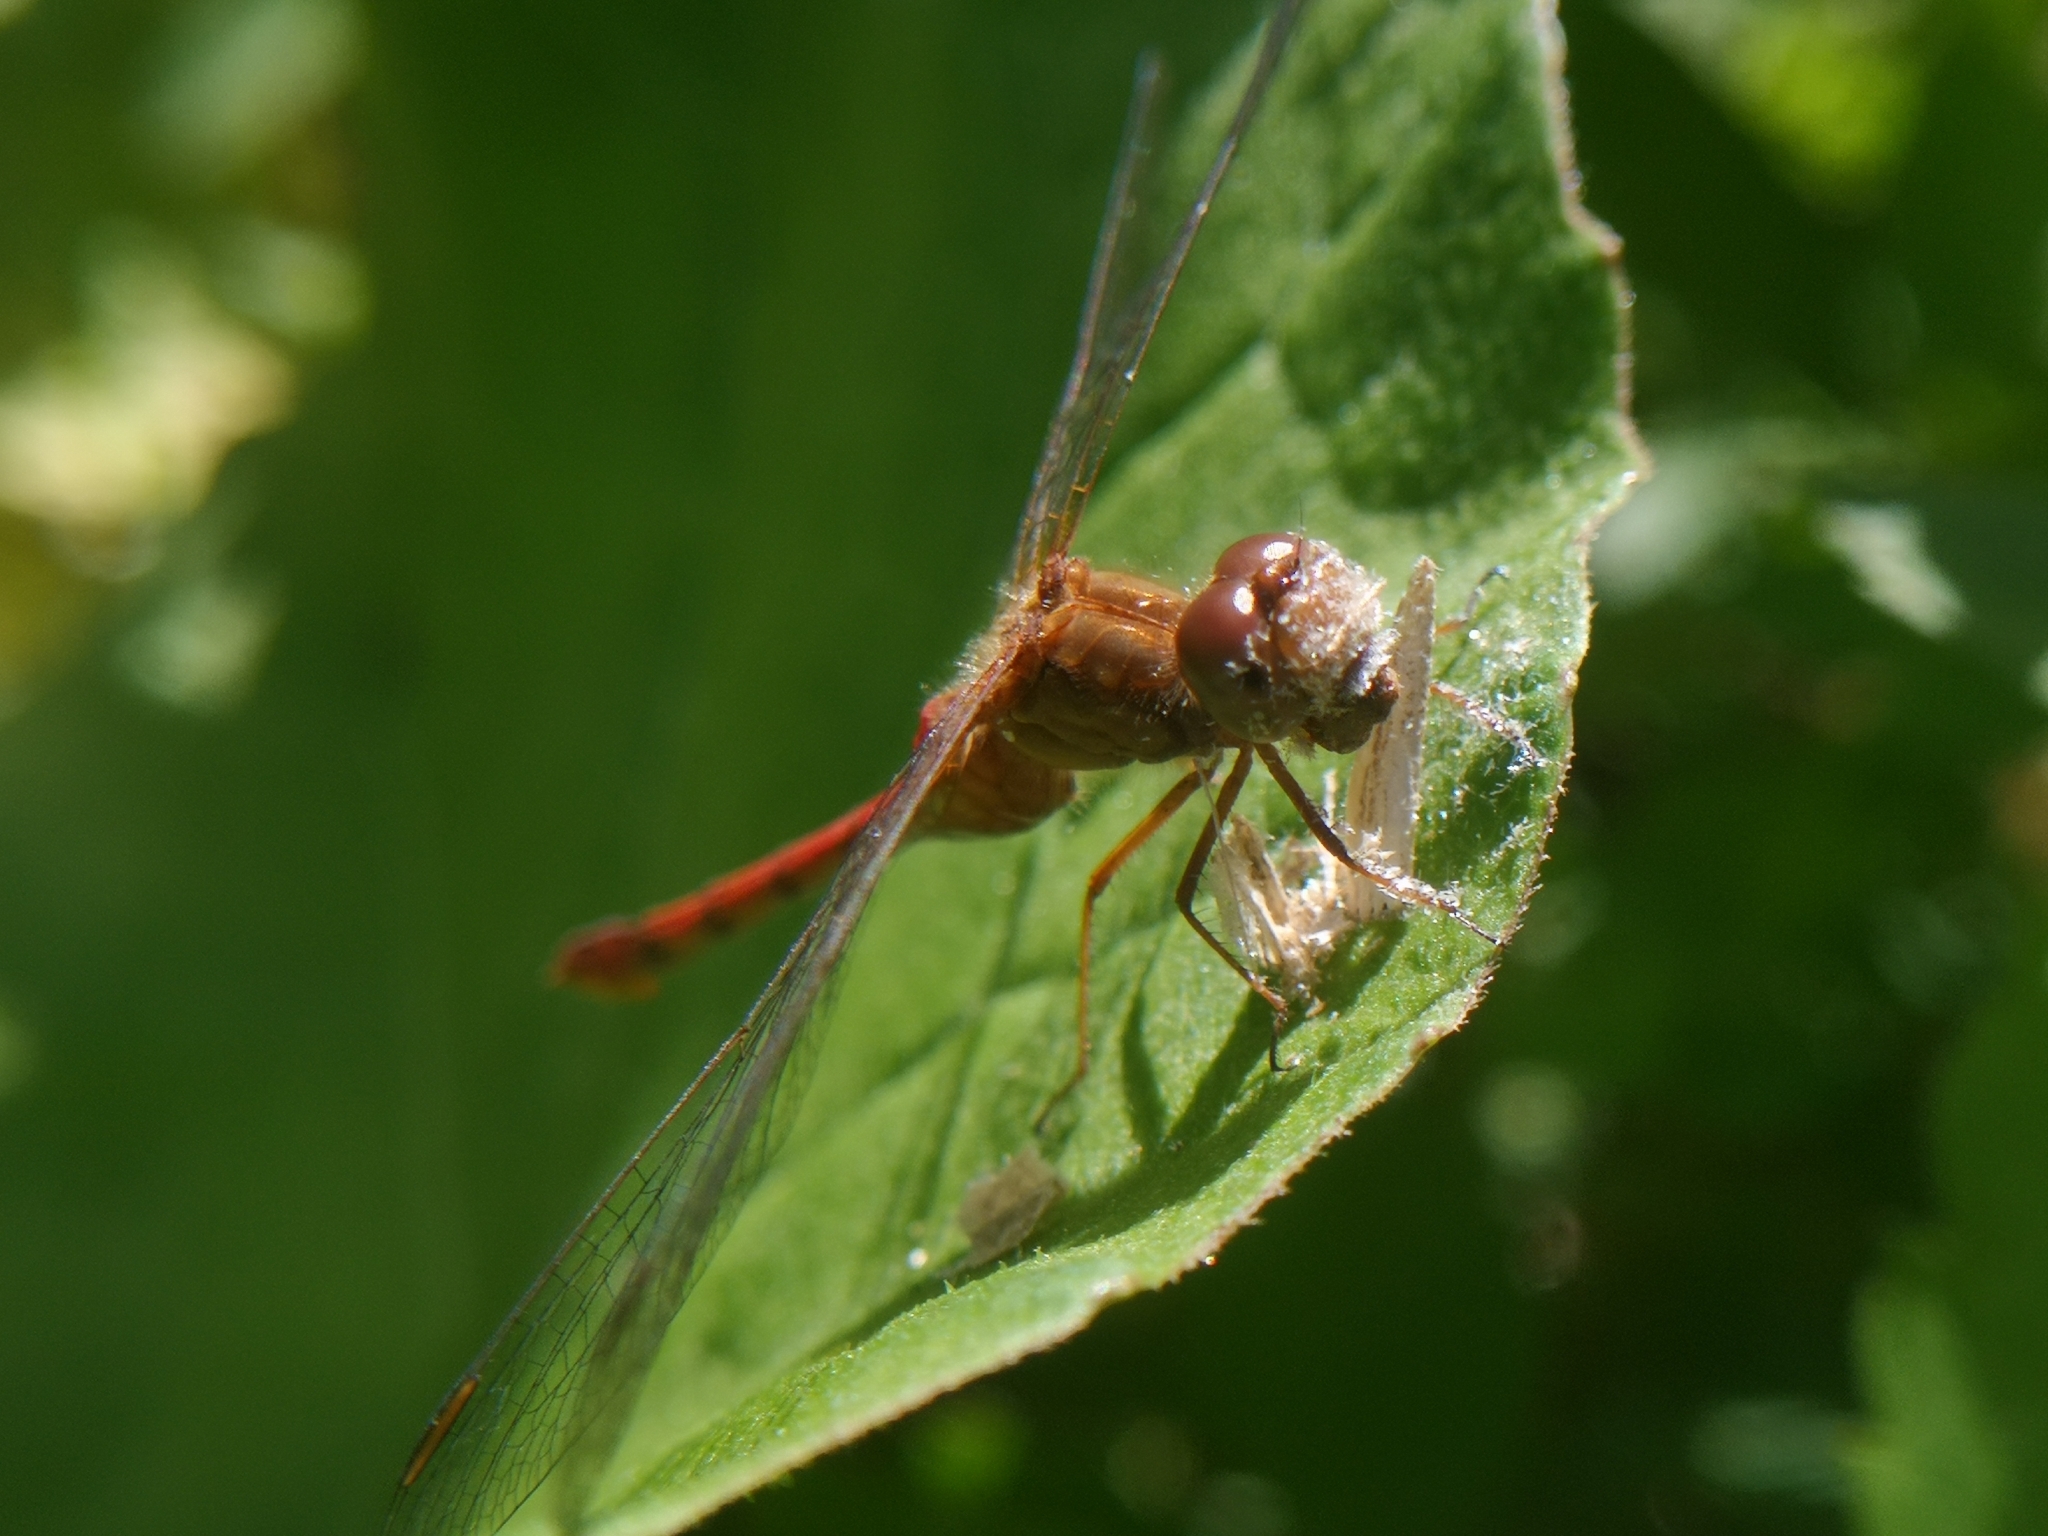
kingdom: Animalia
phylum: Arthropoda
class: Insecta
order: Odonata
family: Libellulidae
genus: Sympetrum
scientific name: Sympetrum vicinum
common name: Autumn meadowhawk
